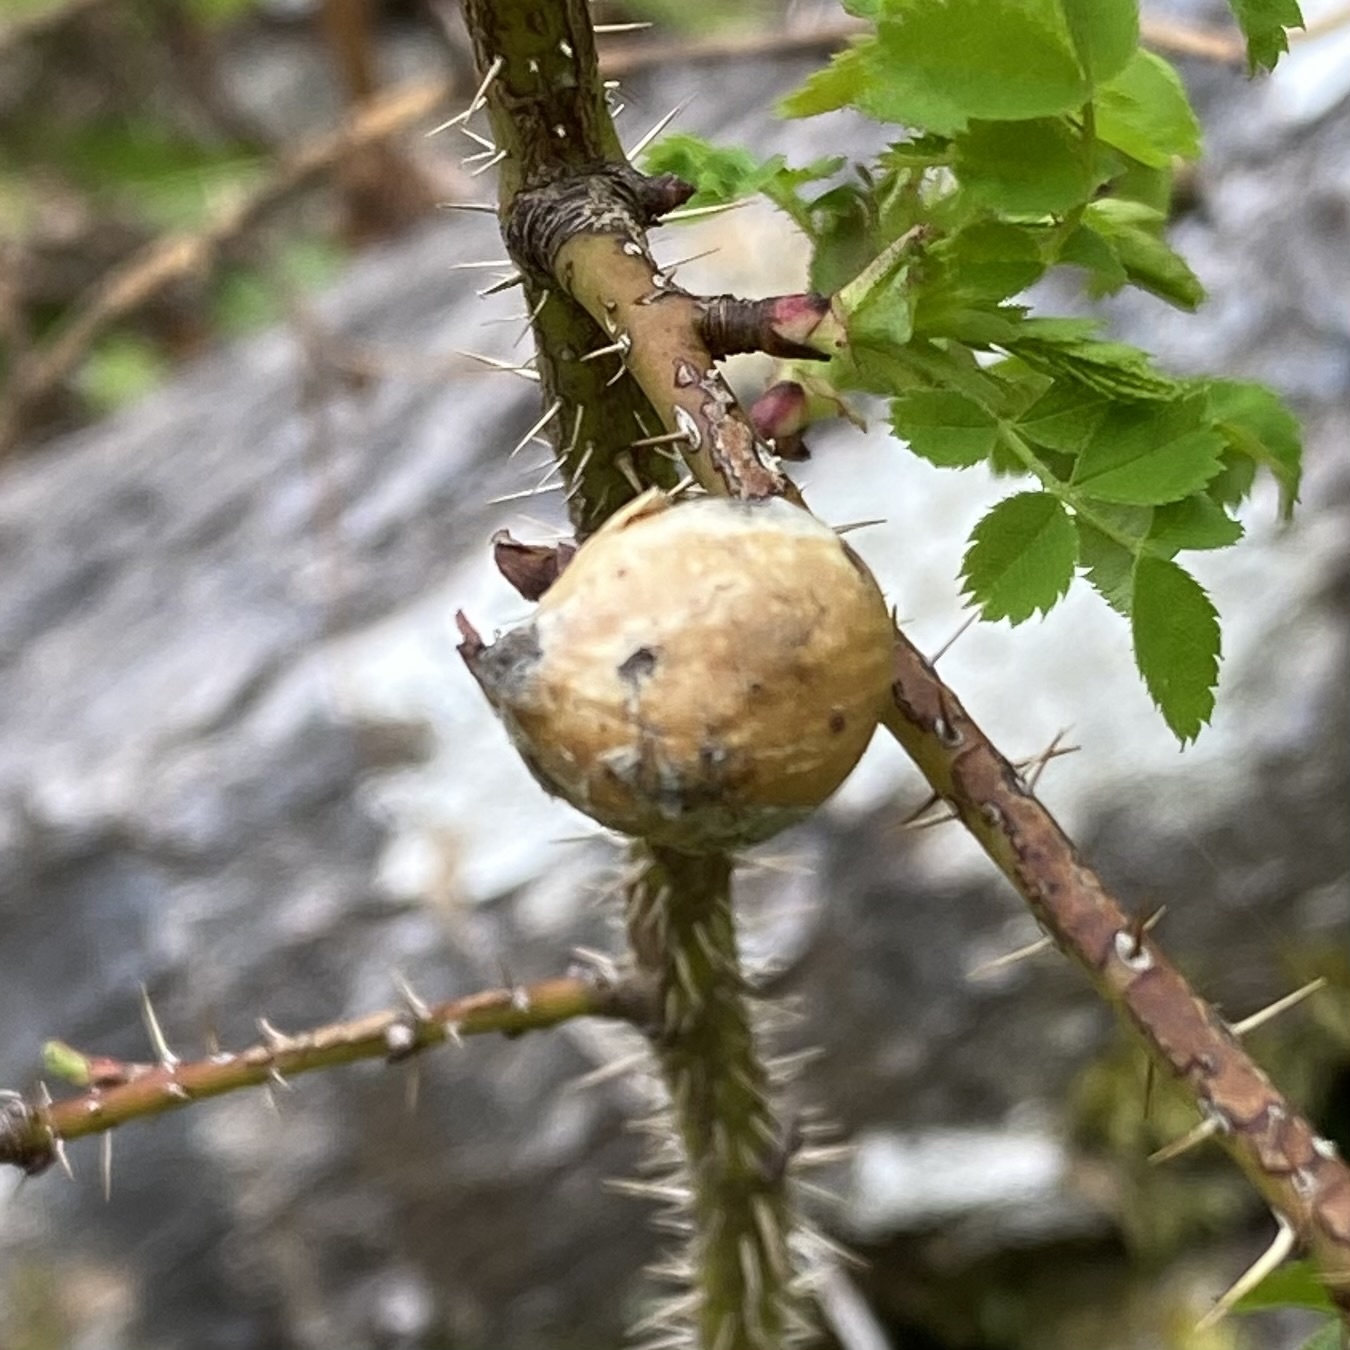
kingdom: Animalia
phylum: Arthropoda
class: Insecta
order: Hymenoptera
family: Cynipidae
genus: Diplolepis
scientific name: Diplolepis
